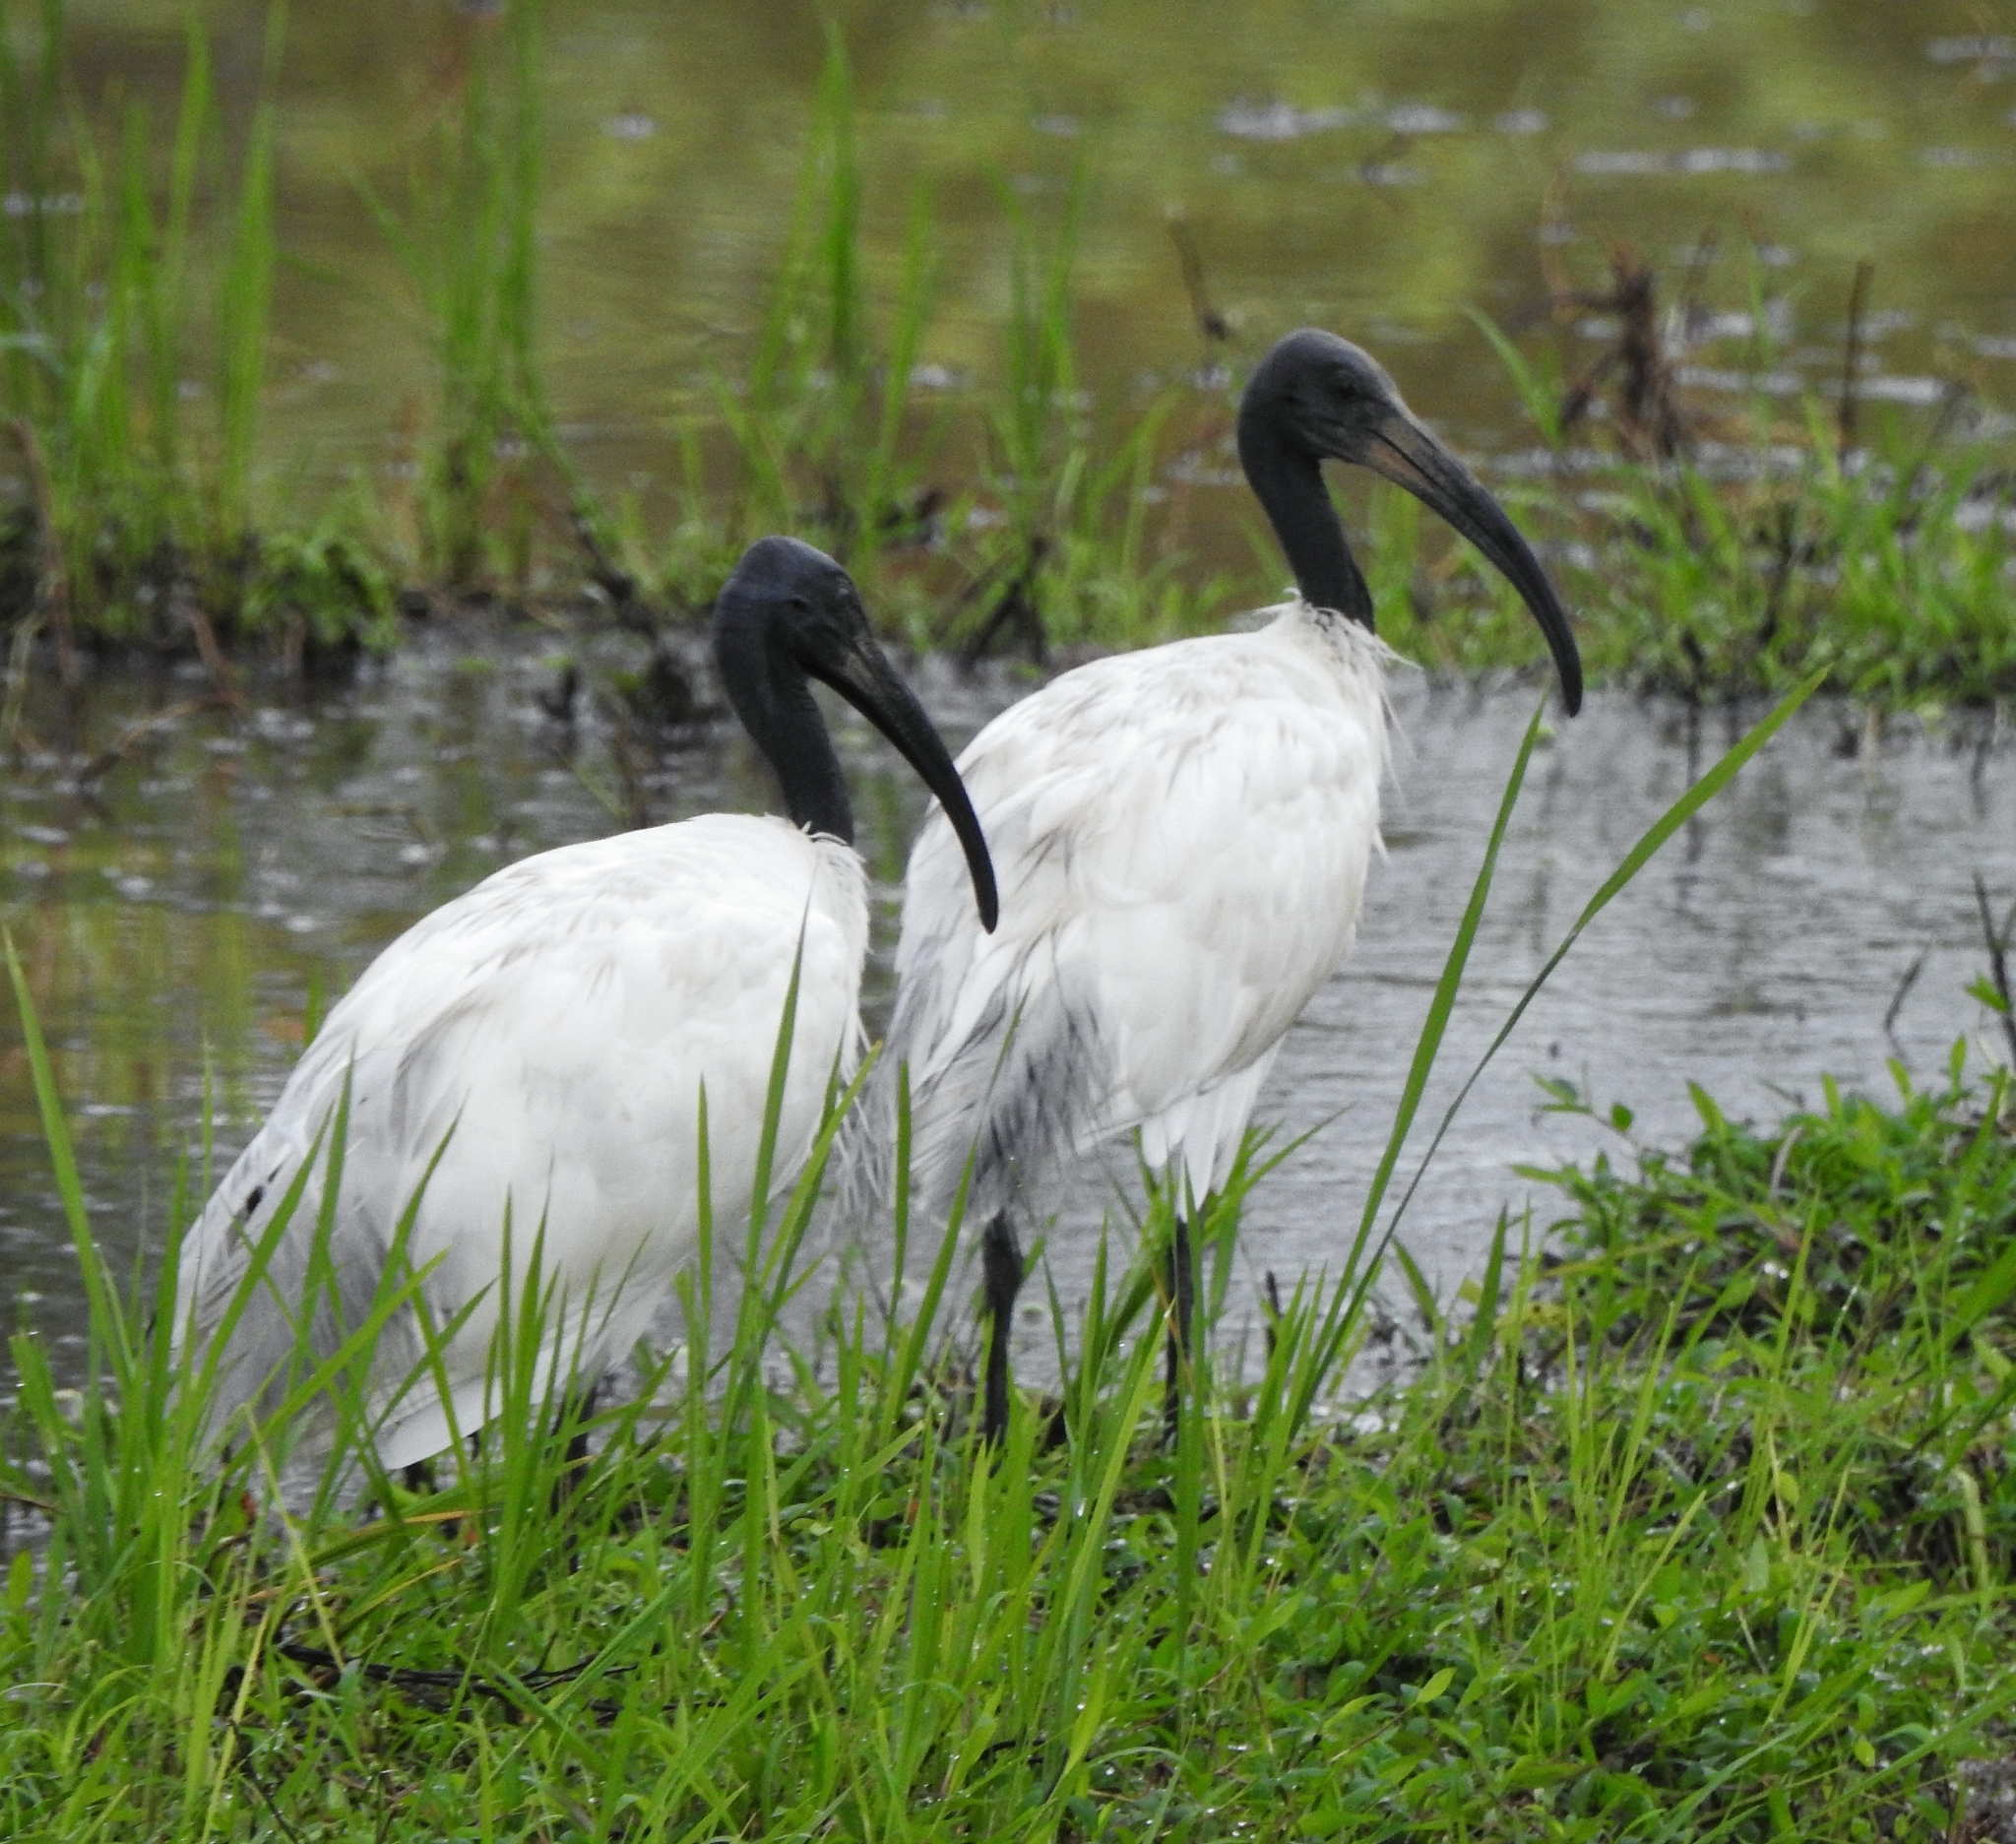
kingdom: Animalia
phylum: Chordata
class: Aves
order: Pelecaniformes
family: Threskiornithidae
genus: Threskiornis
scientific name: Threskiornis melanocephalus
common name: Black-headed ibis
